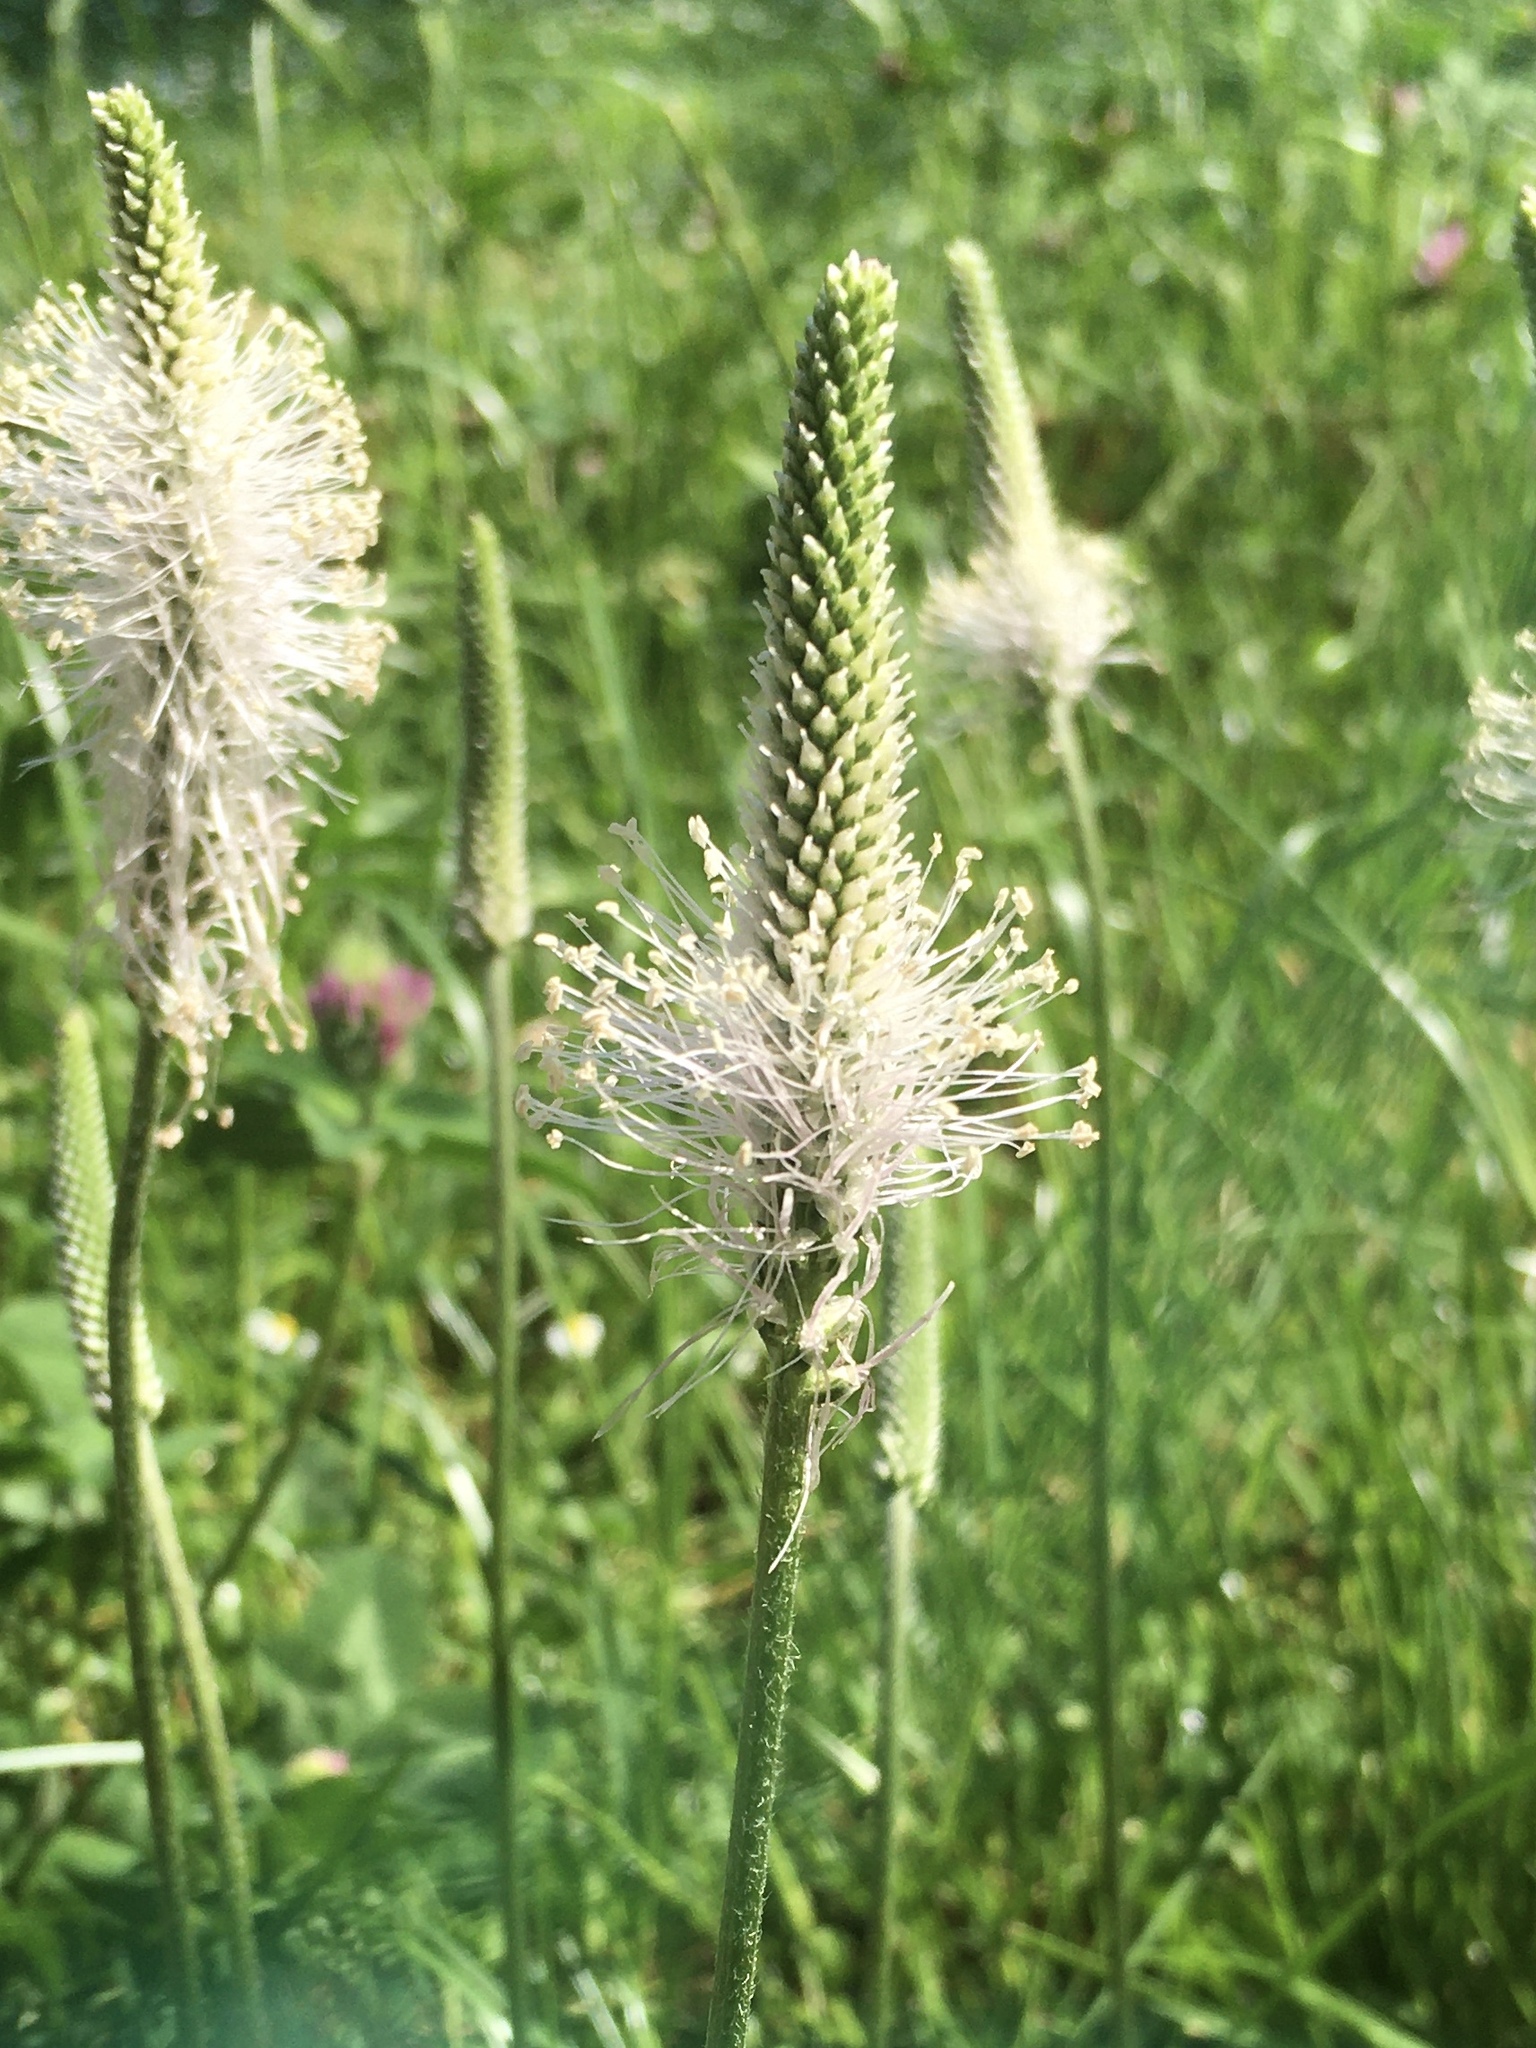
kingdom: Plantae
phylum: Tracheophyta
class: Magnoliopsida
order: Lamiales
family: Plantaginaceae
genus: Plantago
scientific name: Plantago media
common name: Hoary plantain
